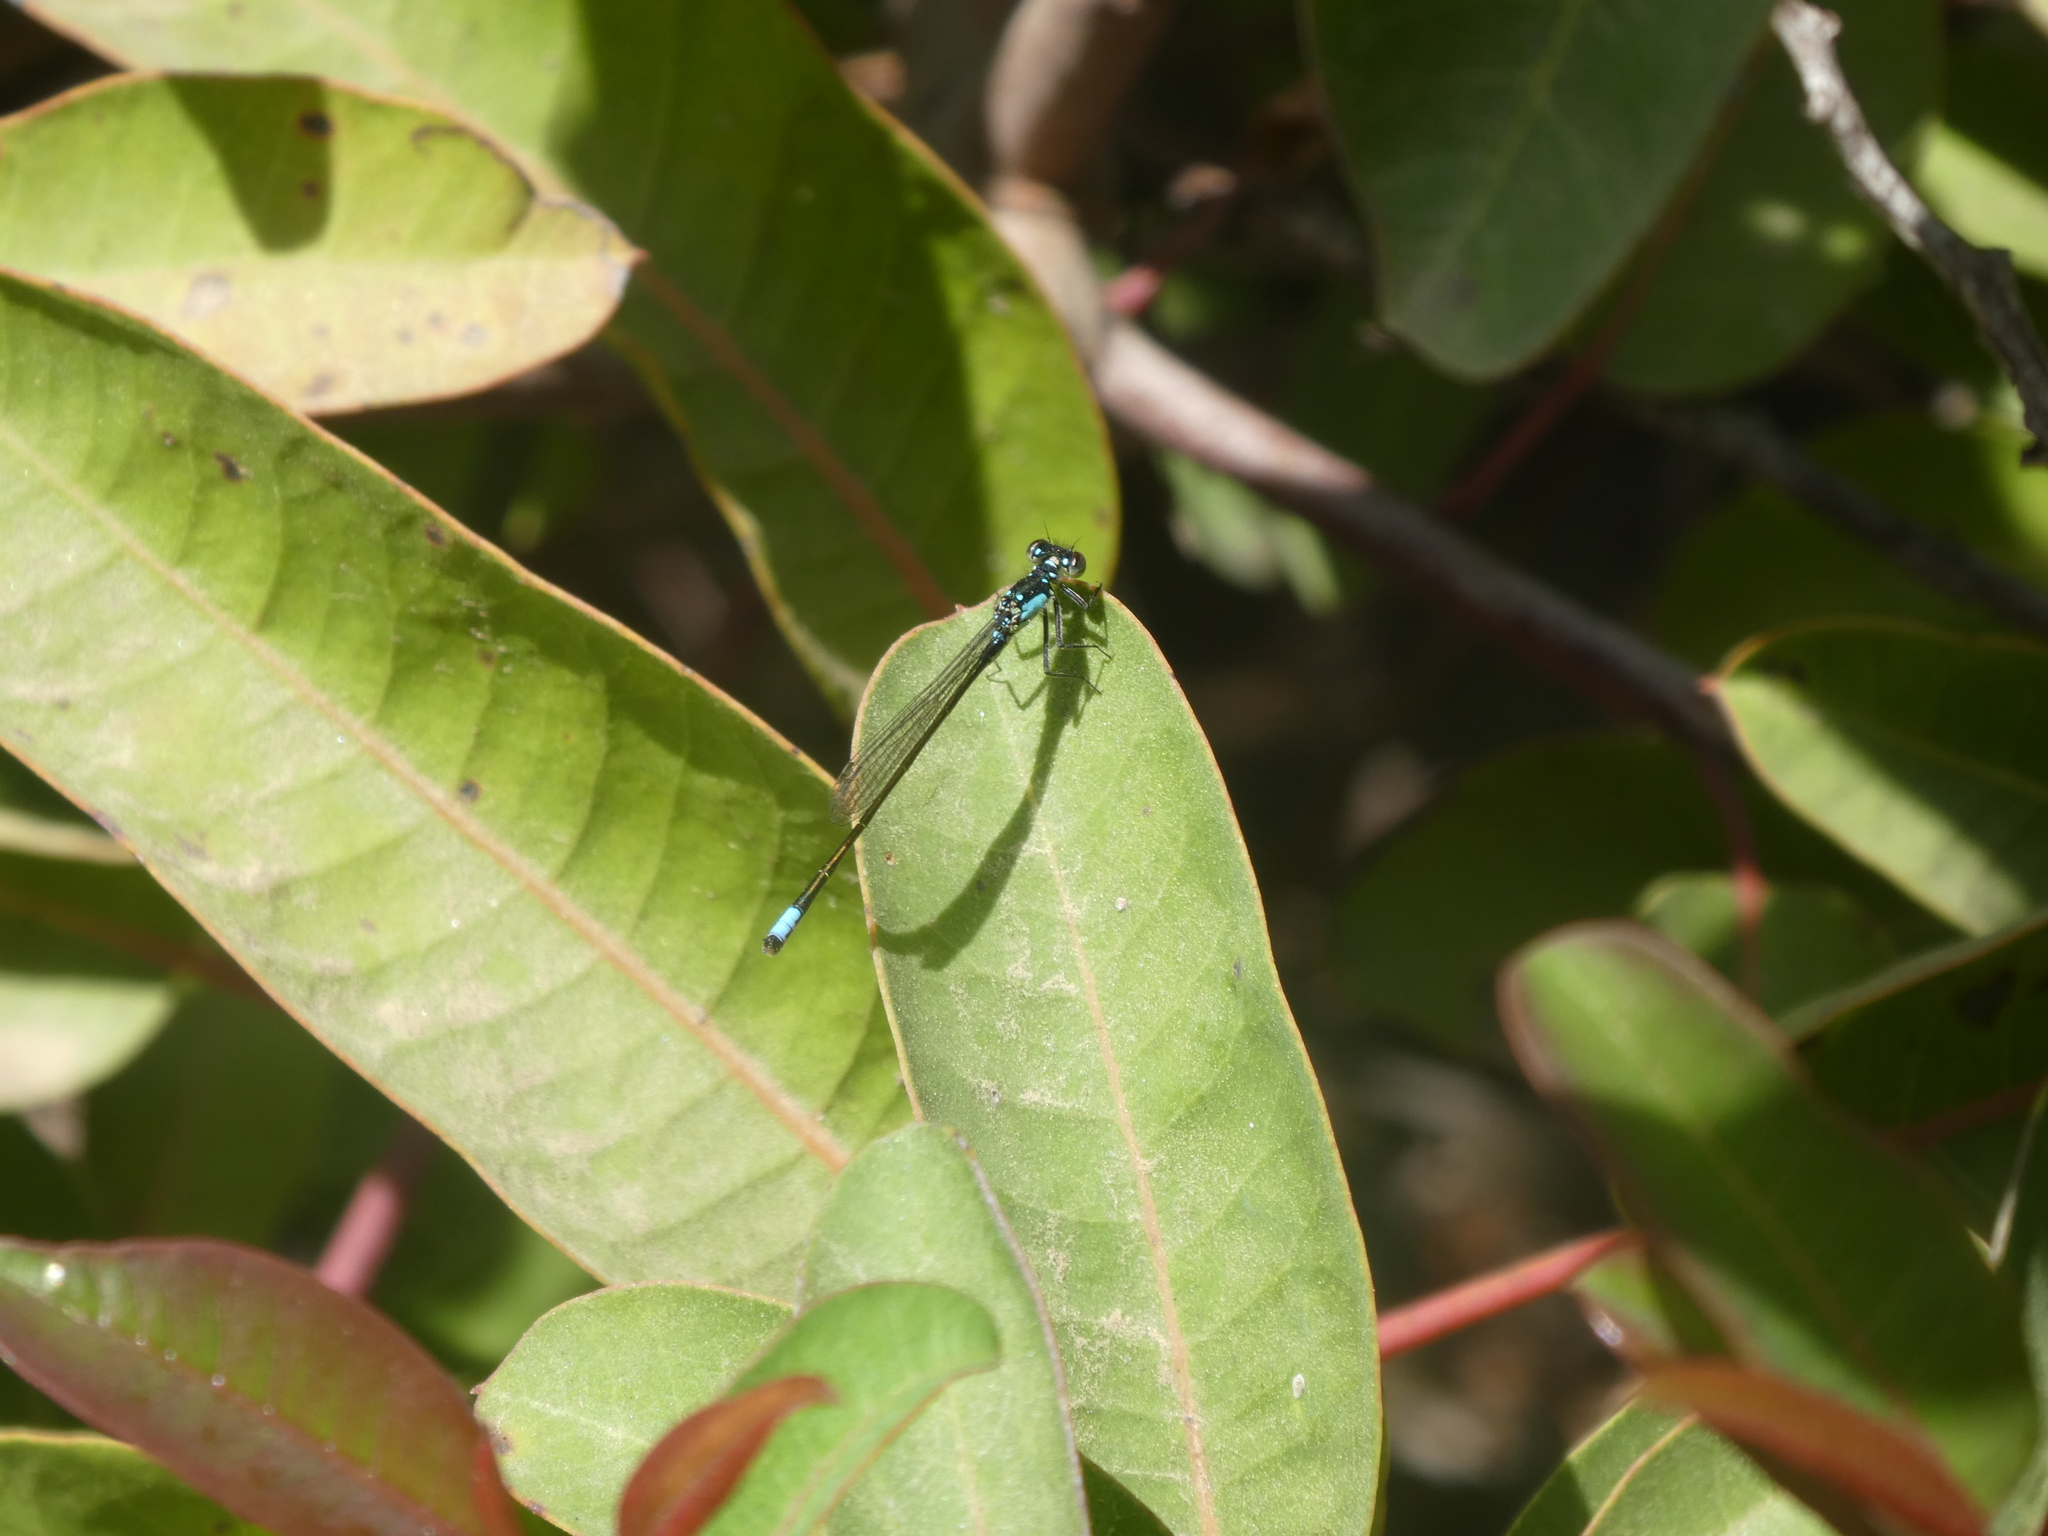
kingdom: Animalia
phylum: Arthropoda
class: Insecta
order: Odonata
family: Coenagrionidae
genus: Ischnura
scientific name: Ischnura cervula
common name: Pacific forktail
